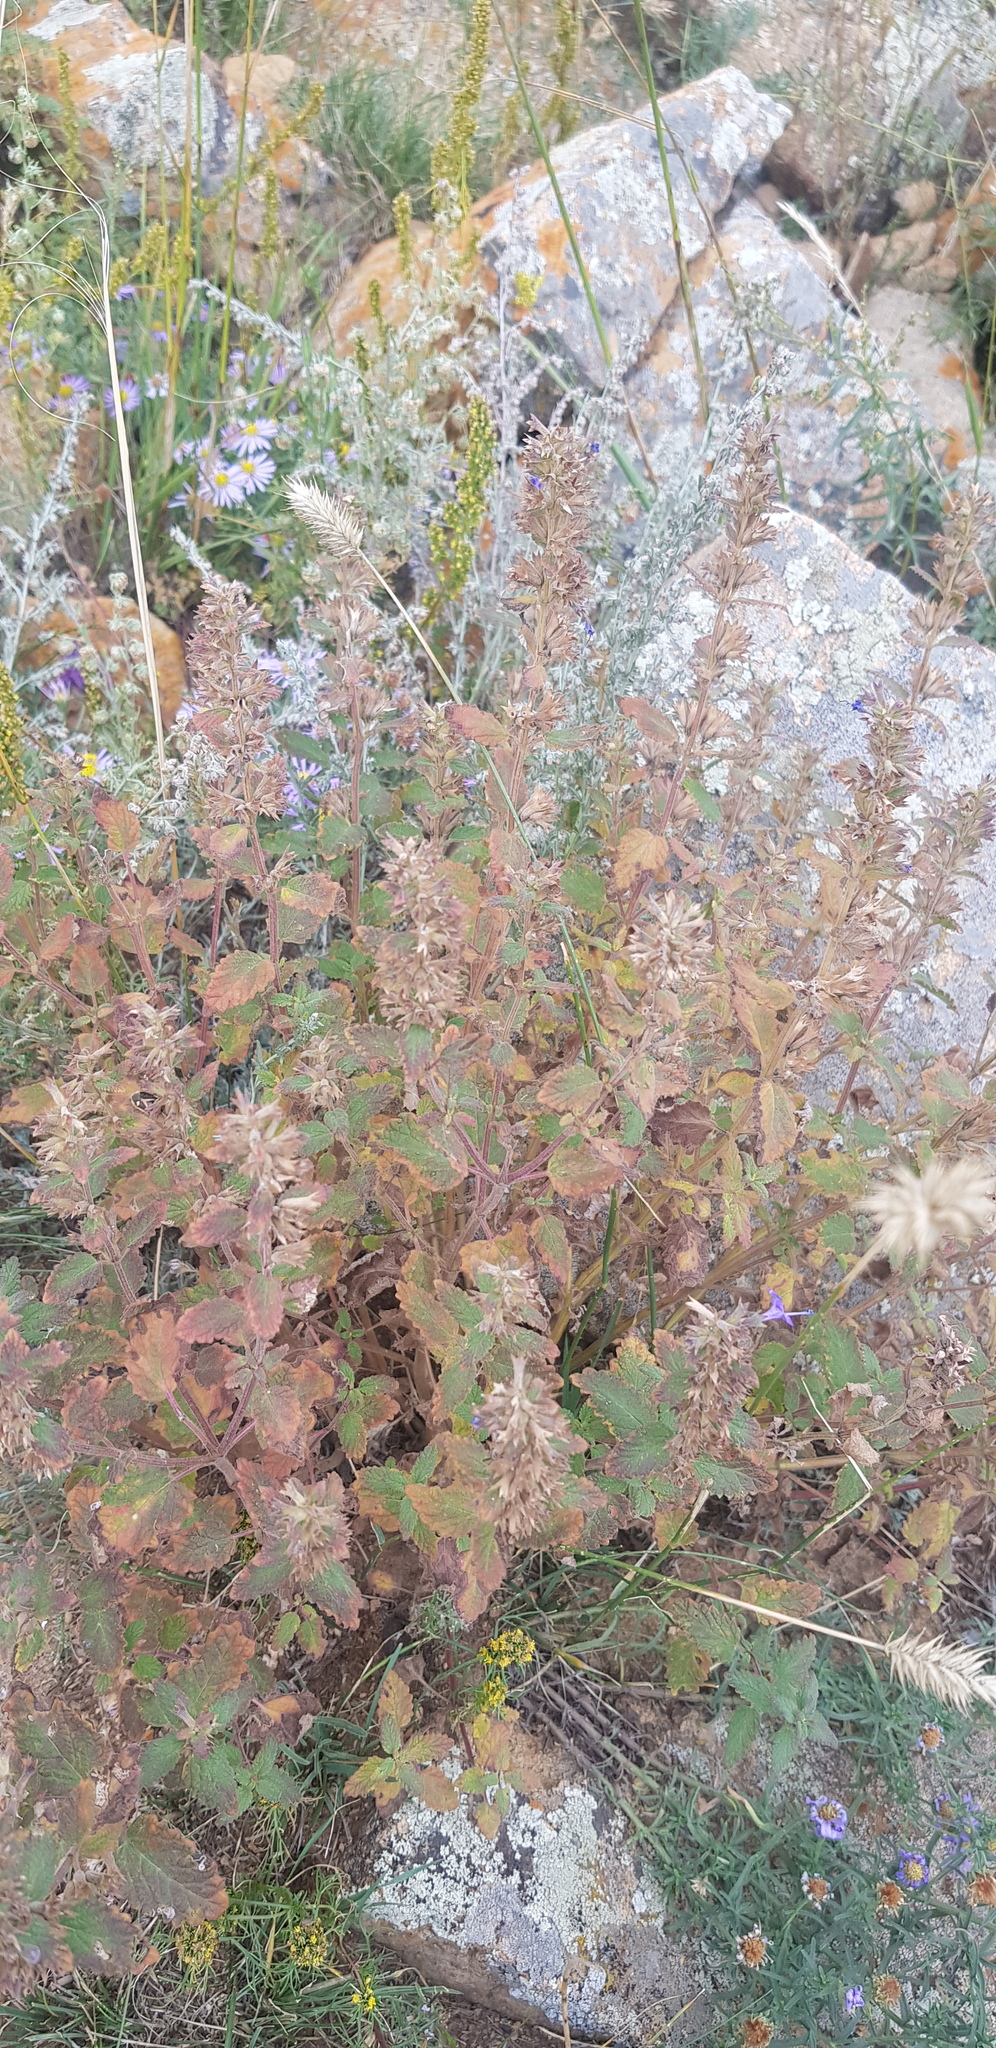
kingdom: Plantae
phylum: Tracheophyta
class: Magnoliopsida
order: Lamiales
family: Lamiaceae
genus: Nepeta
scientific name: Nepeta lophanthus
